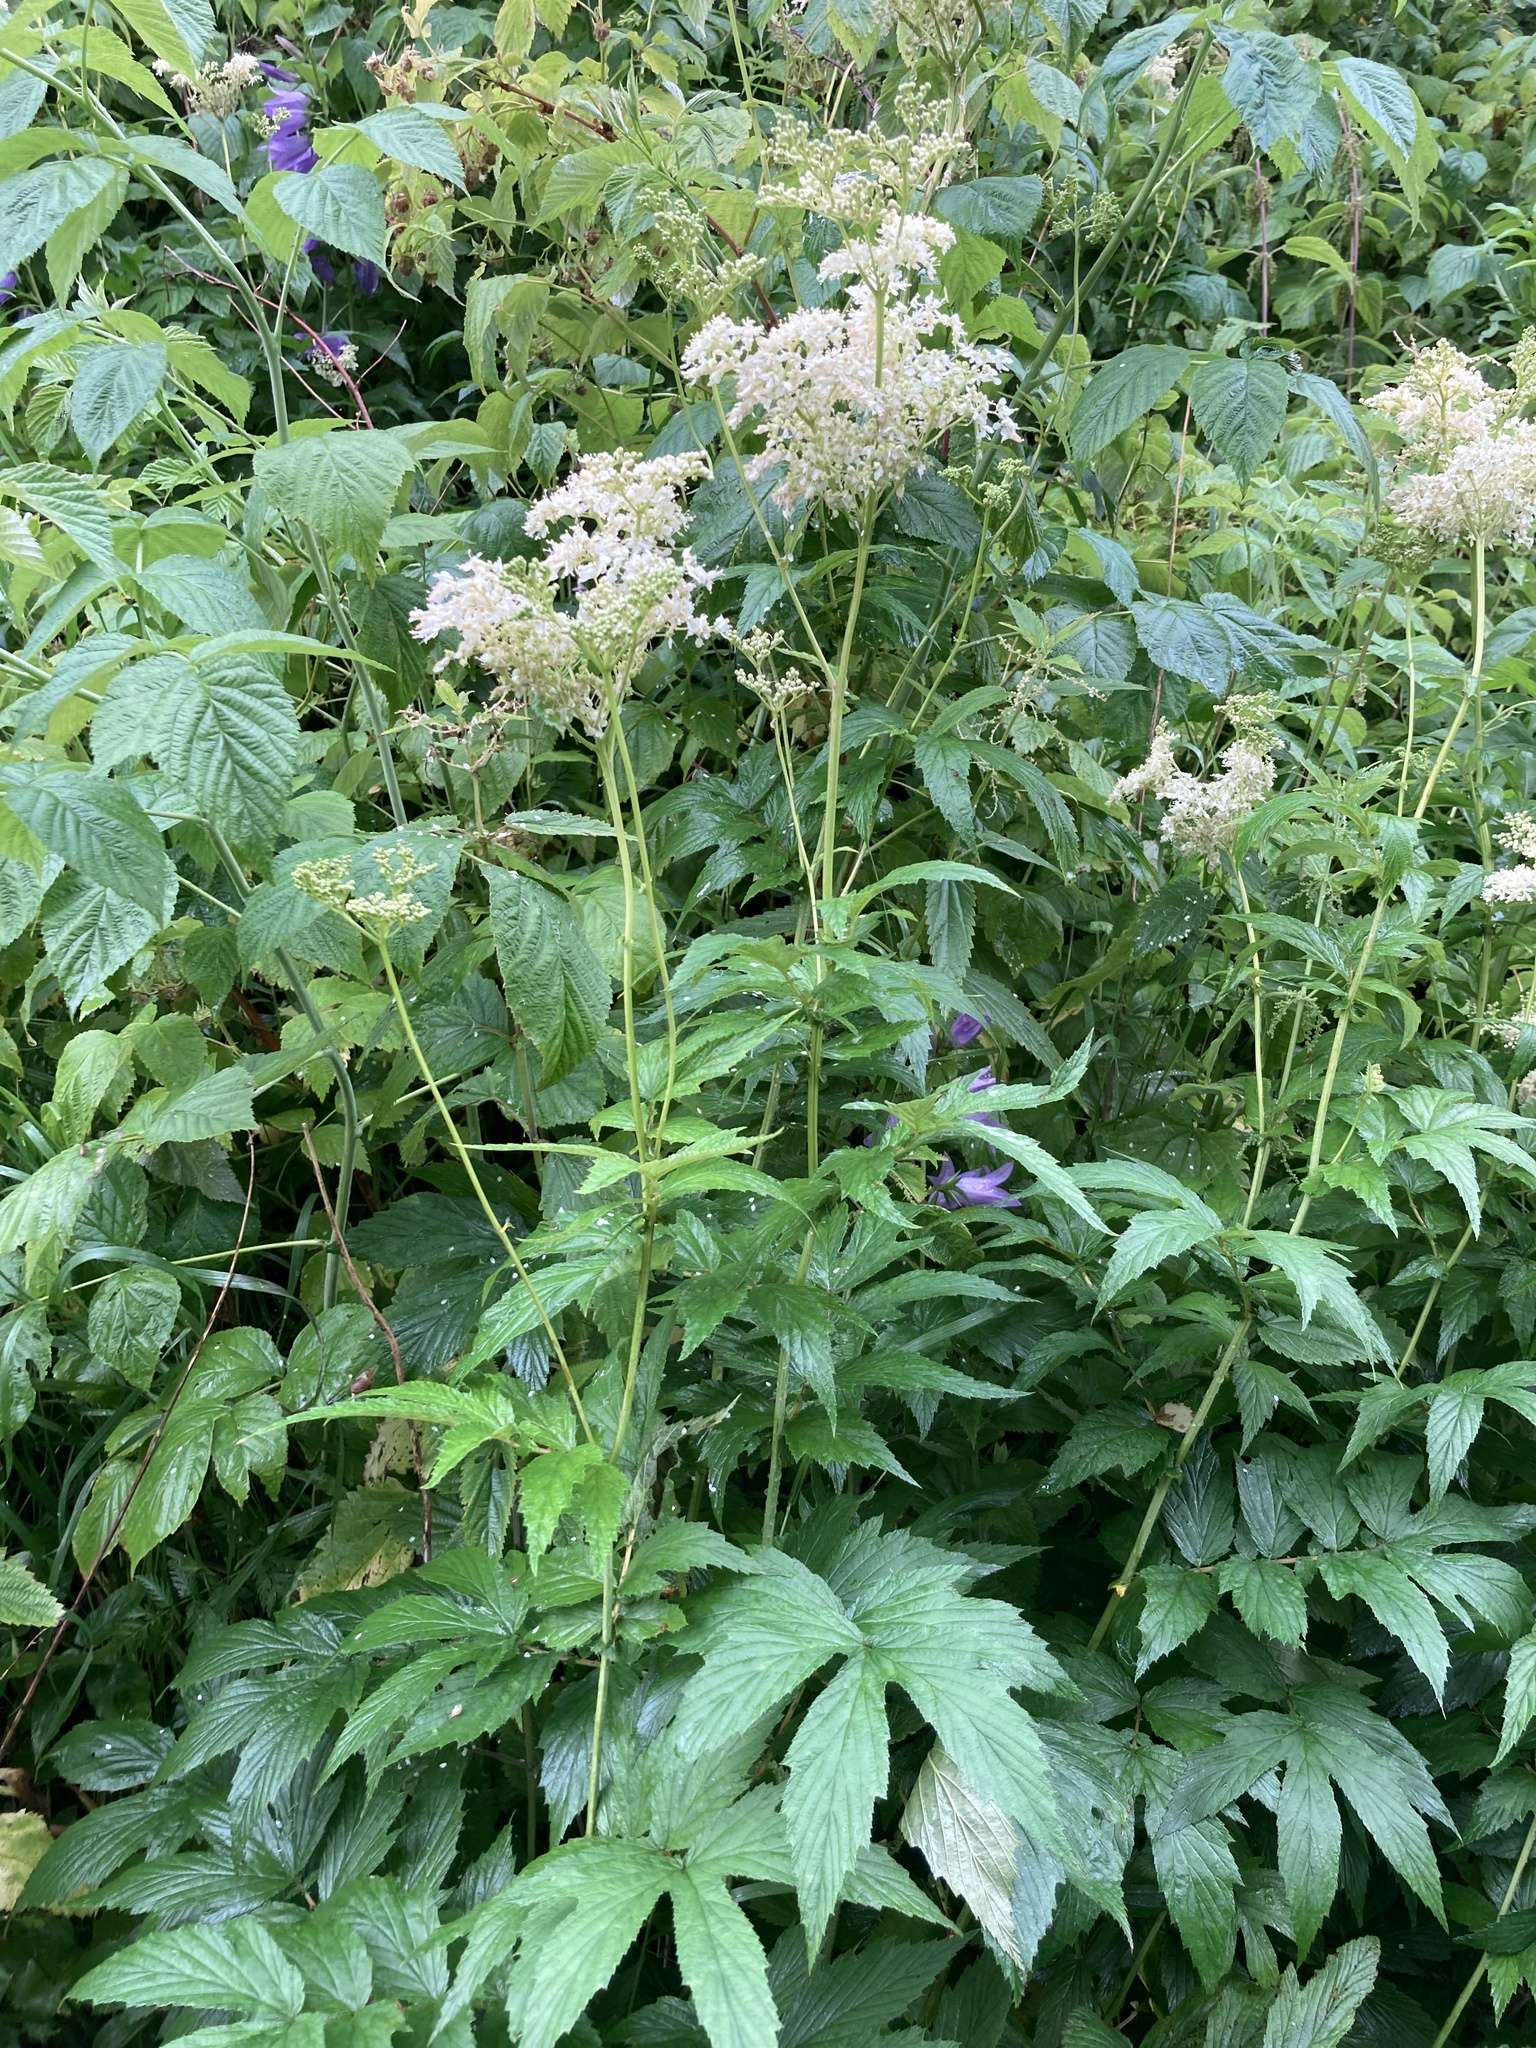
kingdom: Plantae
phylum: Tracheophyta
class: Magnoliopsida
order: Rosales
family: Rosaceae
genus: Filipendula
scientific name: Filipendula ulmaria
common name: Meadowsweet
